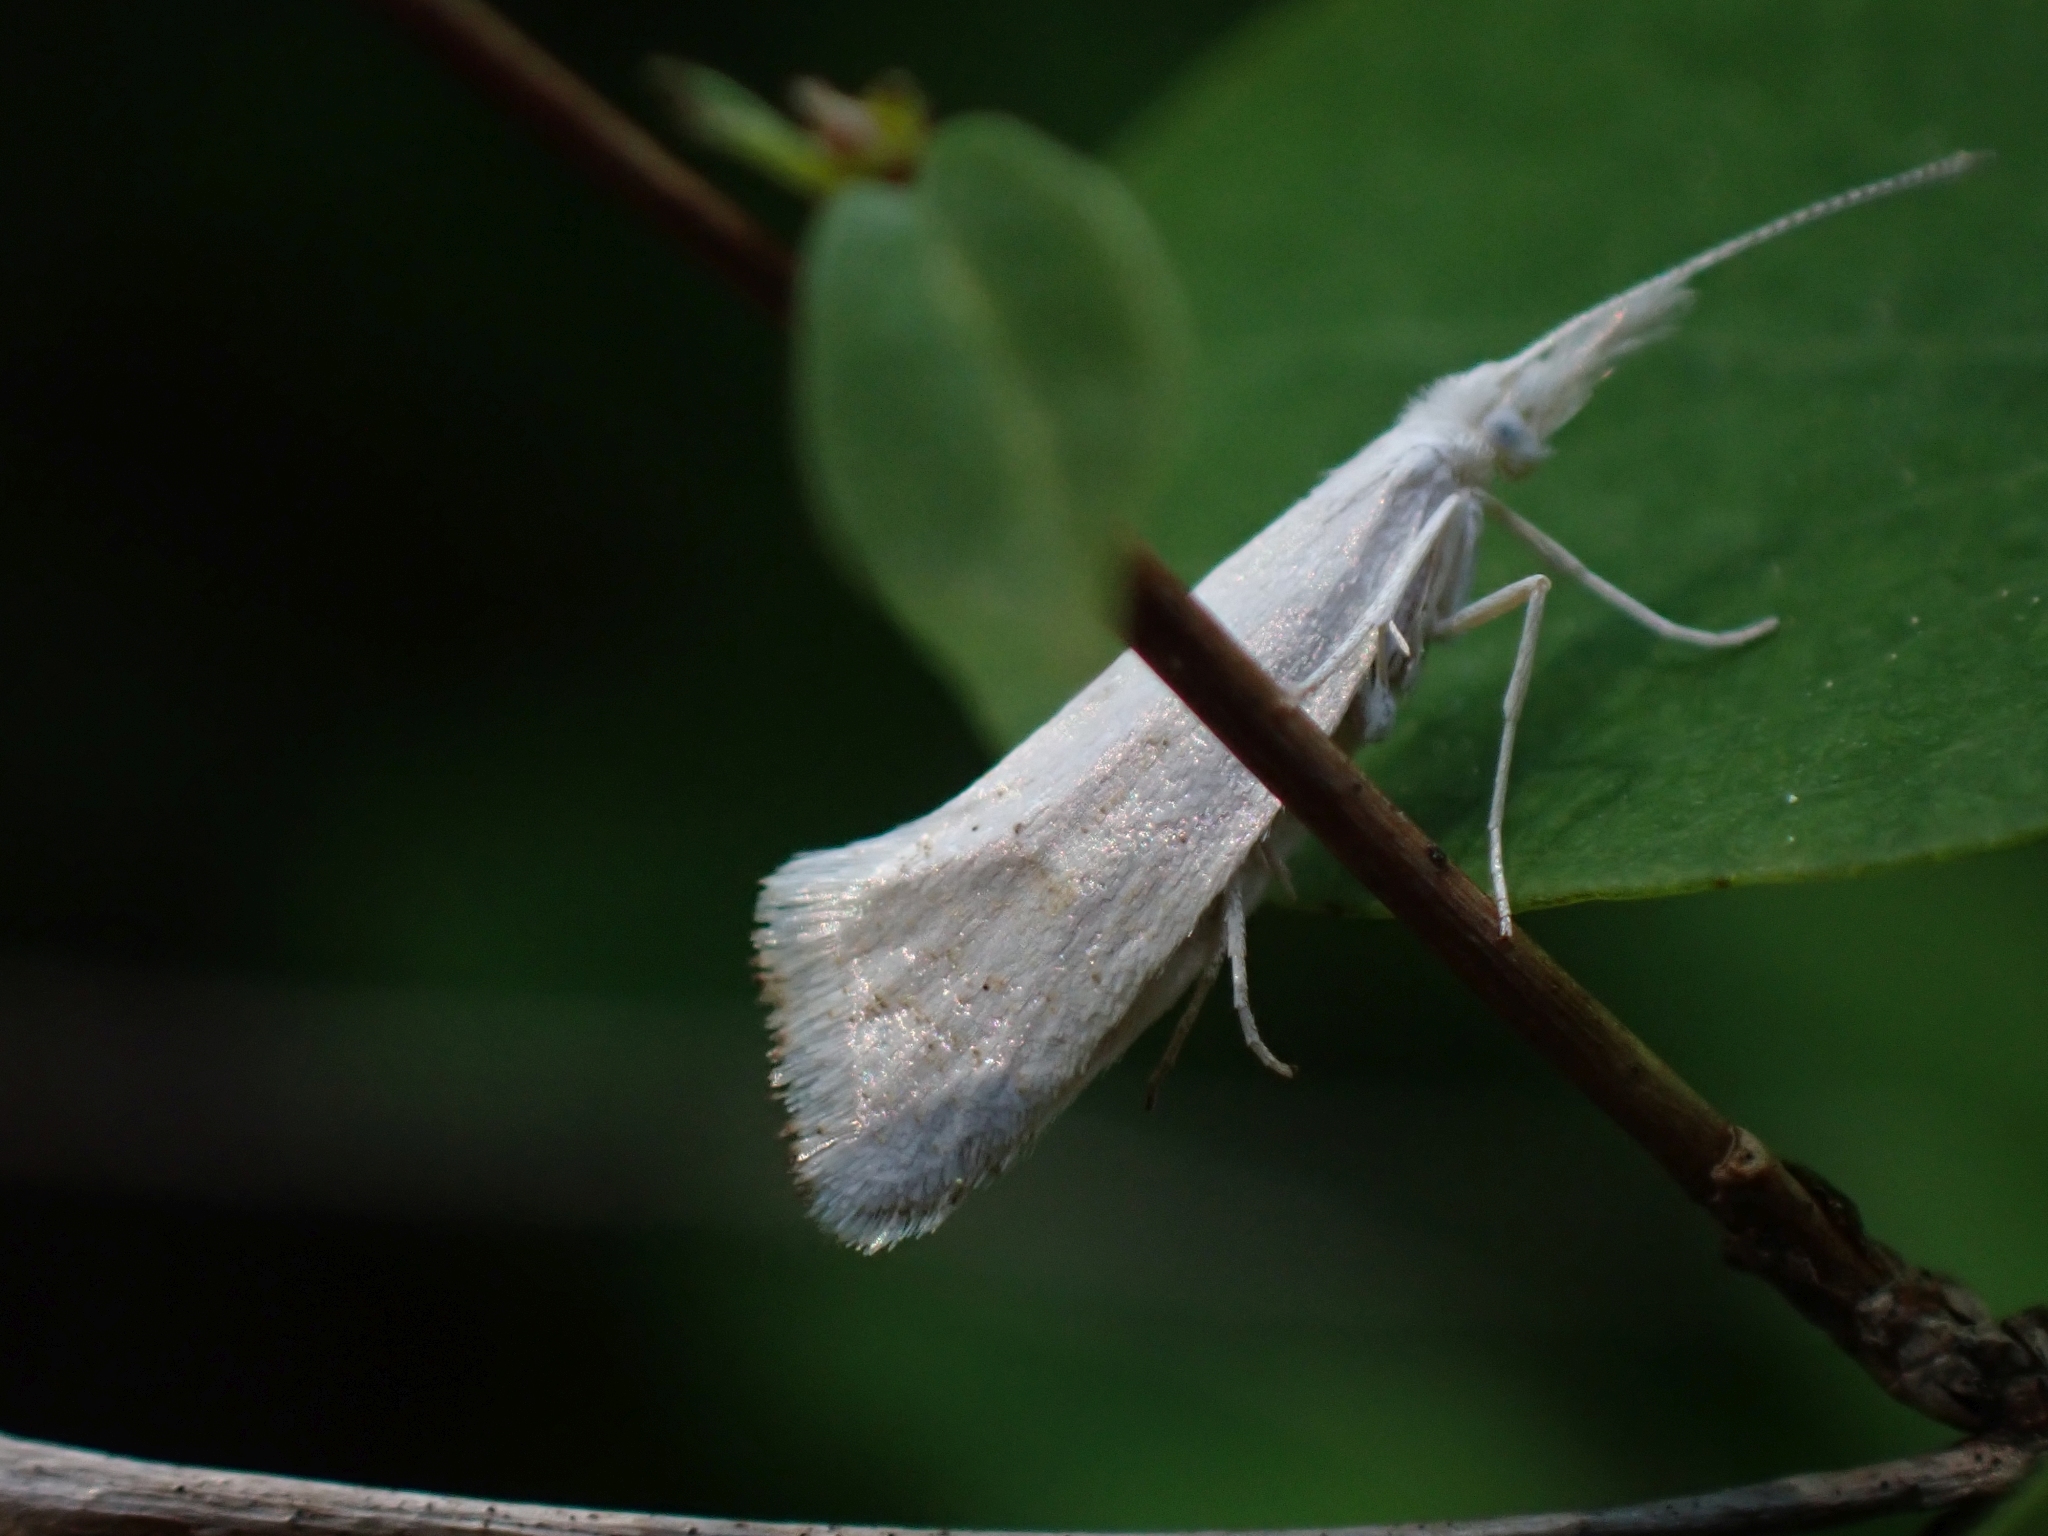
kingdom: Animalia
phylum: Arthropoda
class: Insecta
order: Lepidoptera
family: Ypsolophidae
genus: Euceratia
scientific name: Euceratia castella
